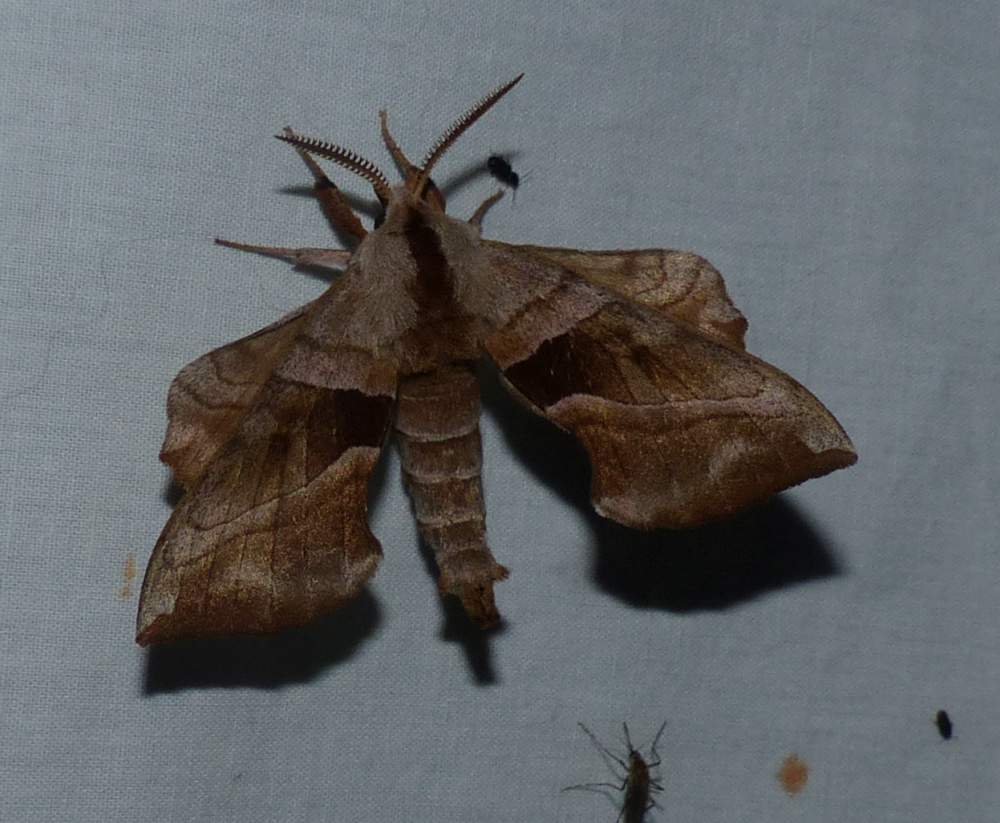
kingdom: Animalia
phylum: Arthropoda
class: Insecta
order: Lepidoptera
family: Sphingidae
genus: Amorpha
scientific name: Amorpha juglandis
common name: Walnut sphinx
